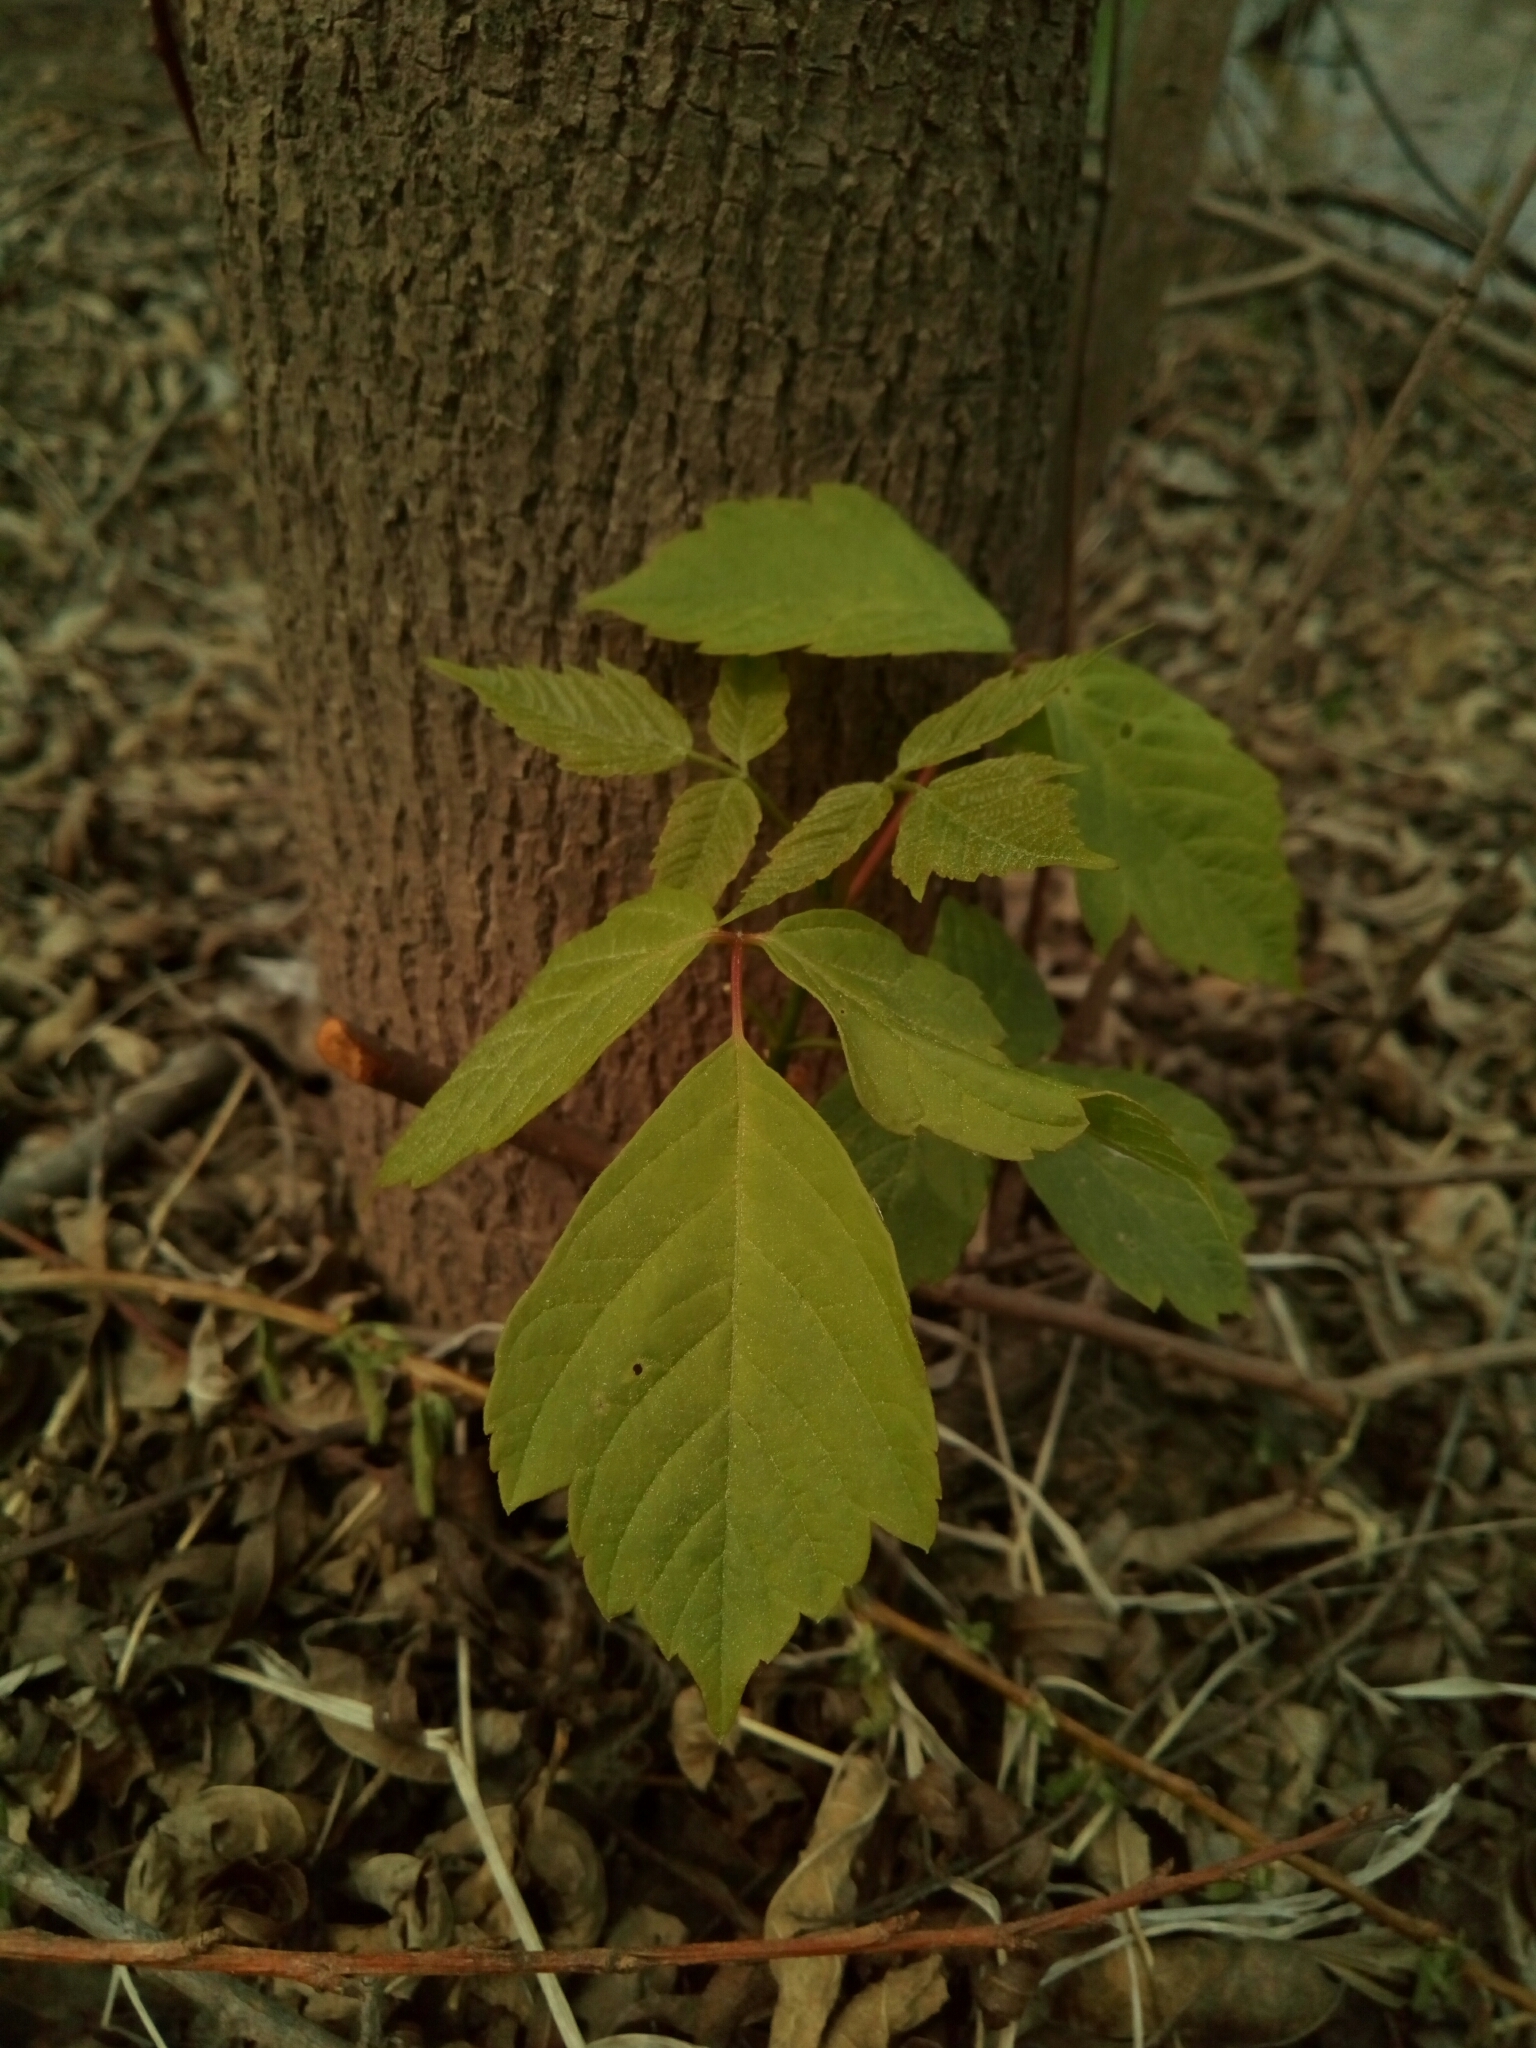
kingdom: Plantae
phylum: Tracheophyta
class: Magnoliopsida
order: Sapindales
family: Anacardiaceae
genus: Toxicodendron
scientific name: Toxicodendron radicans
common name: Poison ivy
